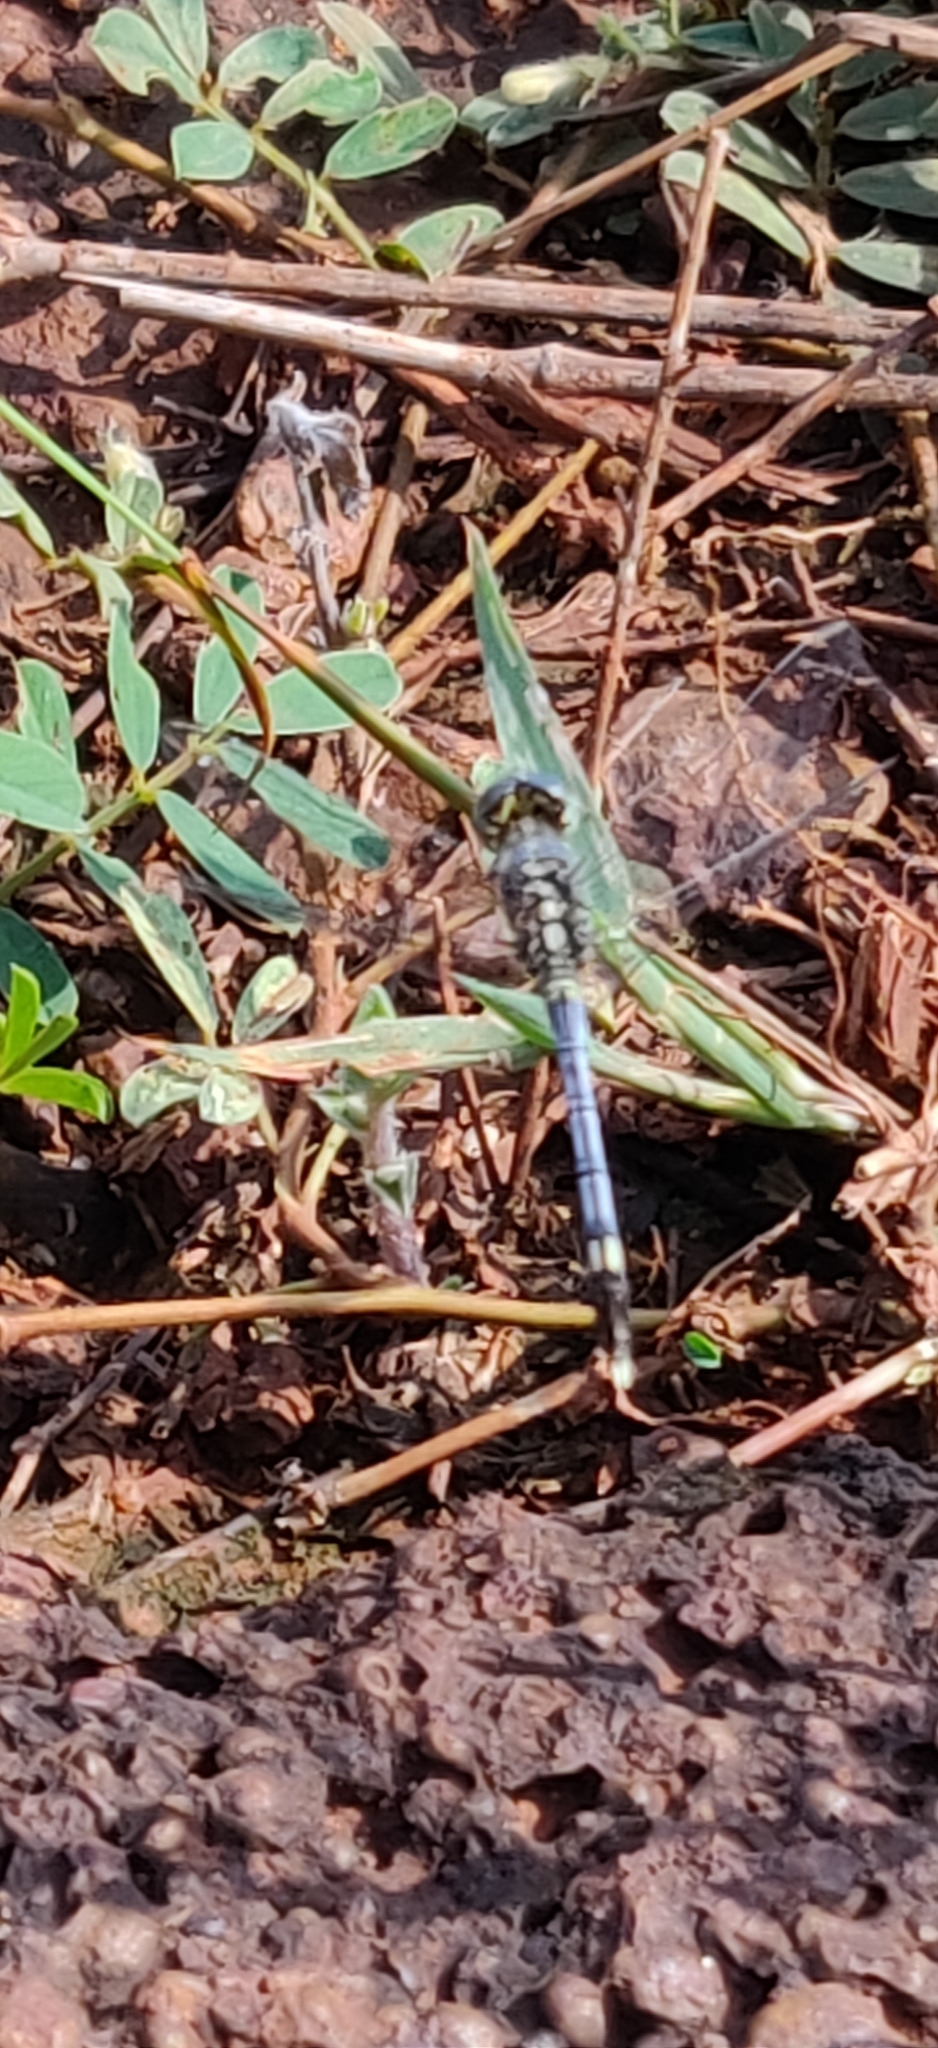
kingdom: Animalia
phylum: Arthropoda
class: Insecta
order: Odonata
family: Libellulidae
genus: Diplacodes
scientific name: Diplacodes trivialis
